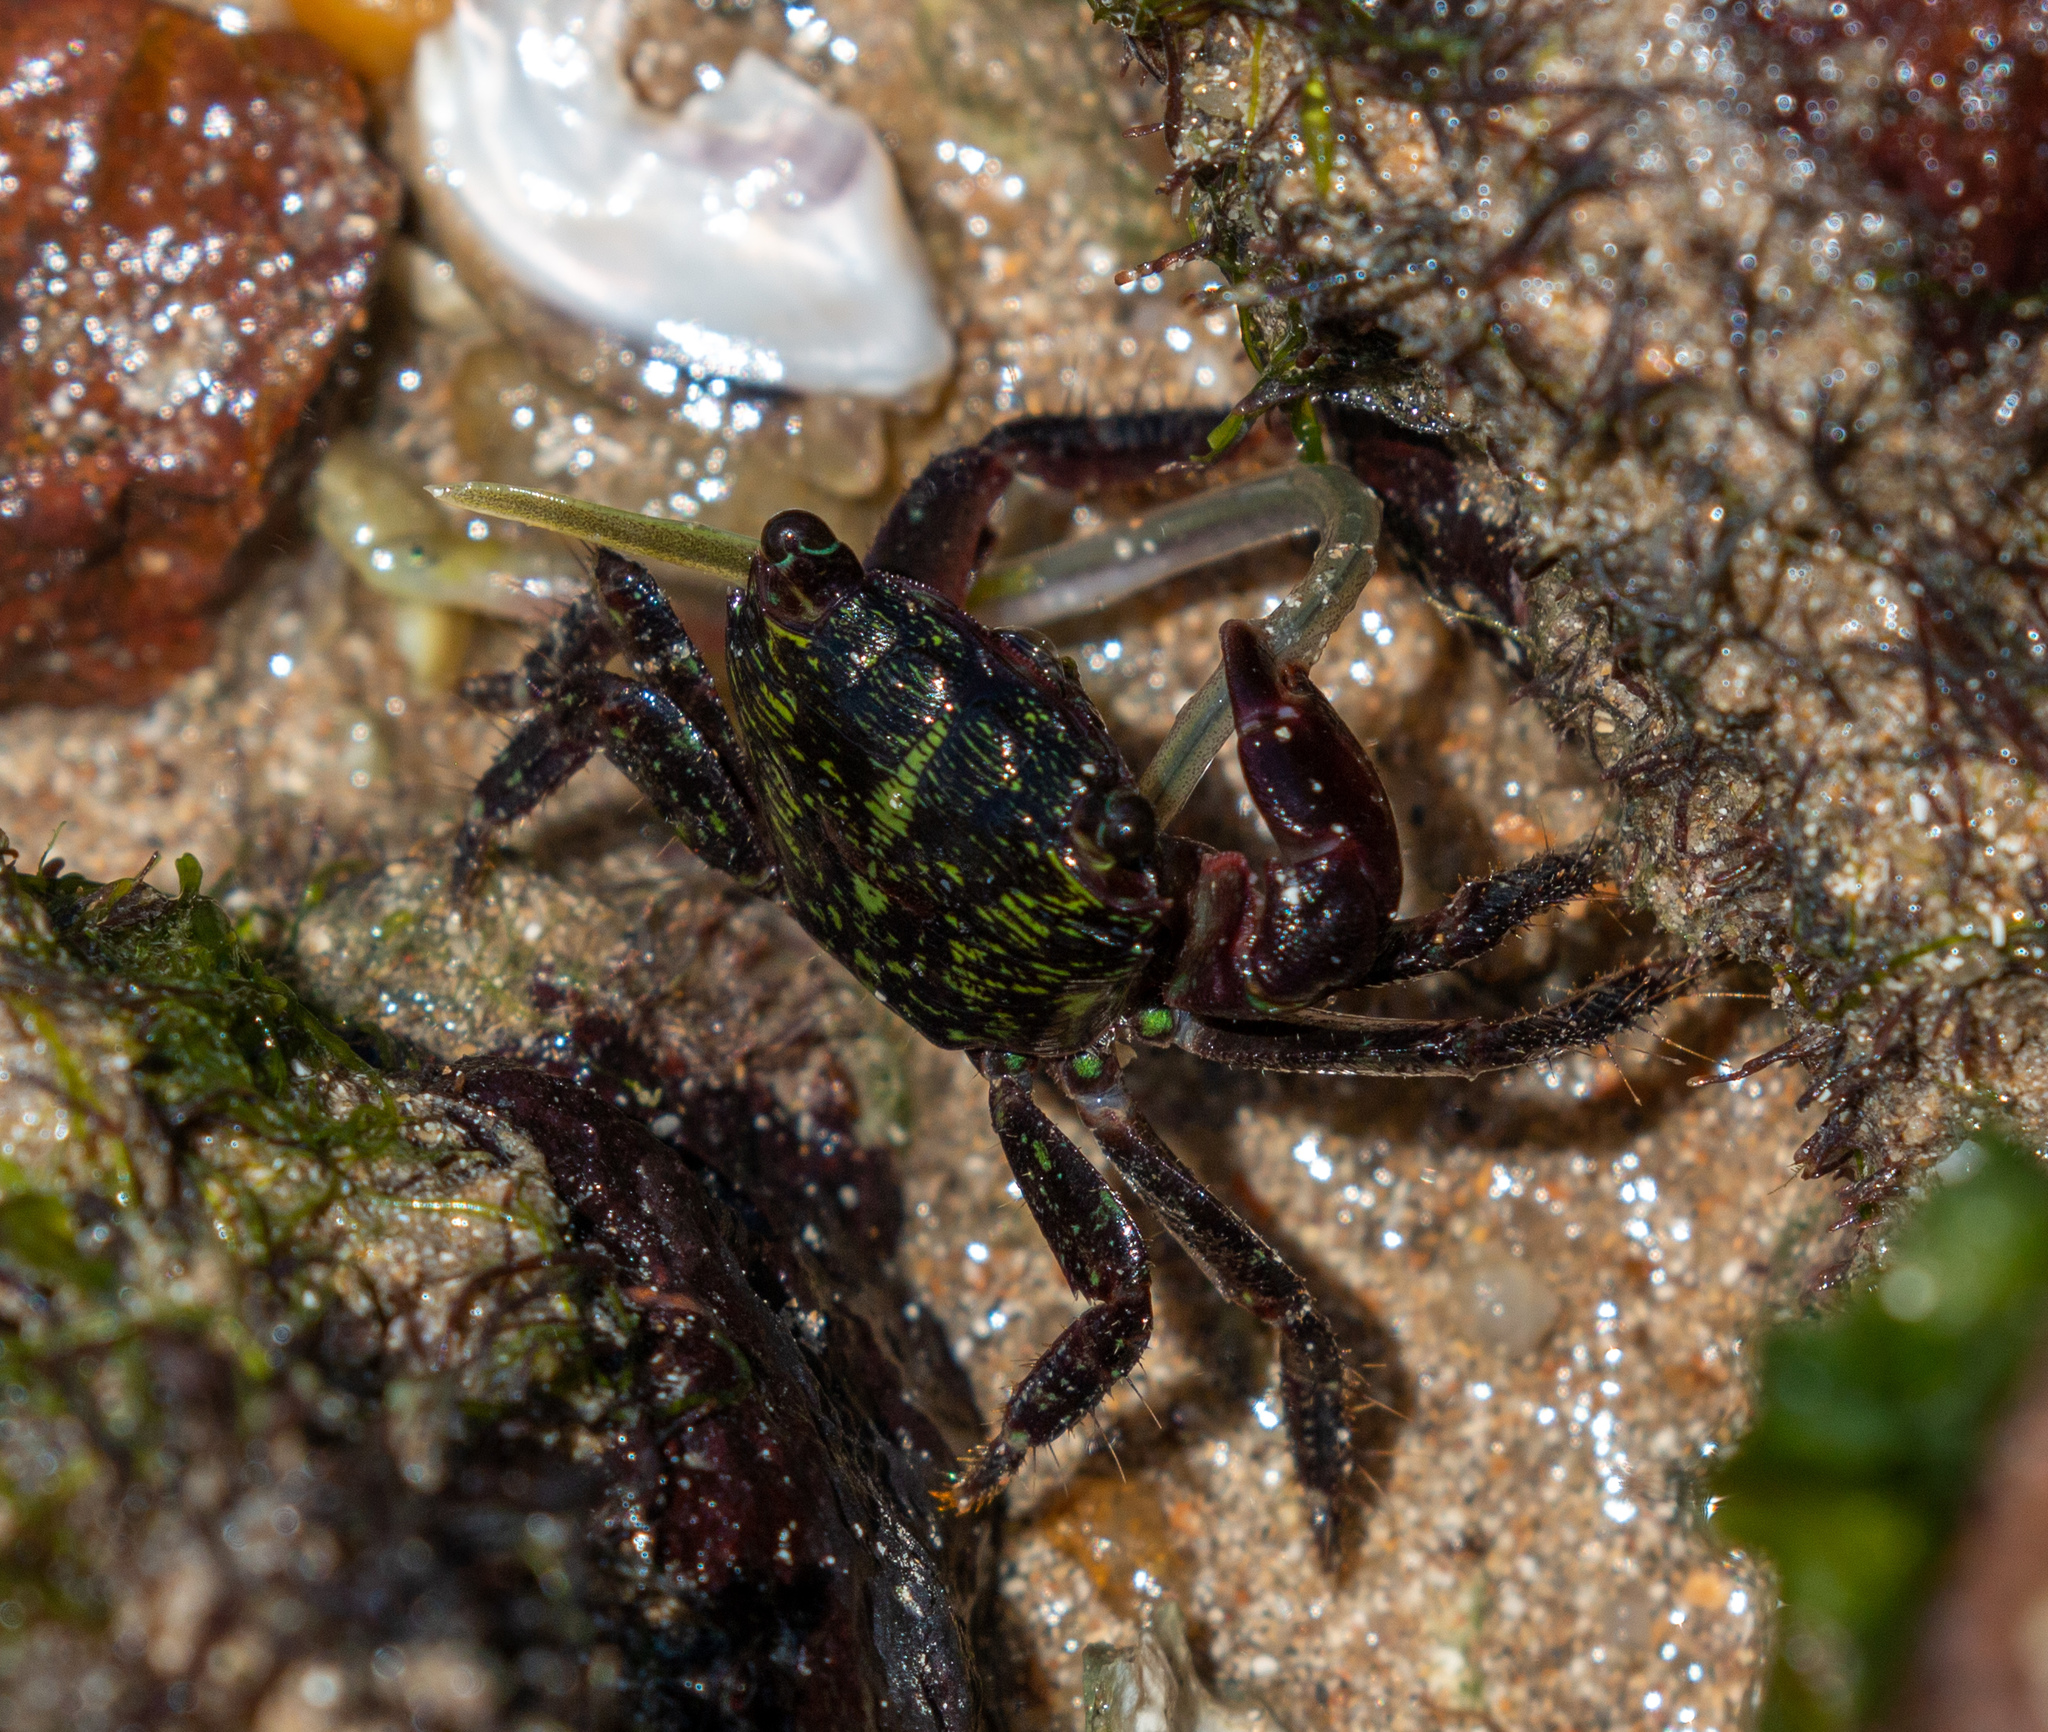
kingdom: Animalia
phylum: Arthropoda
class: Malacostraca
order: Decapoda
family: Grapsidae
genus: Pachygrapsus
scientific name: Pachygrapsus transversus
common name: Mottled shore crab
